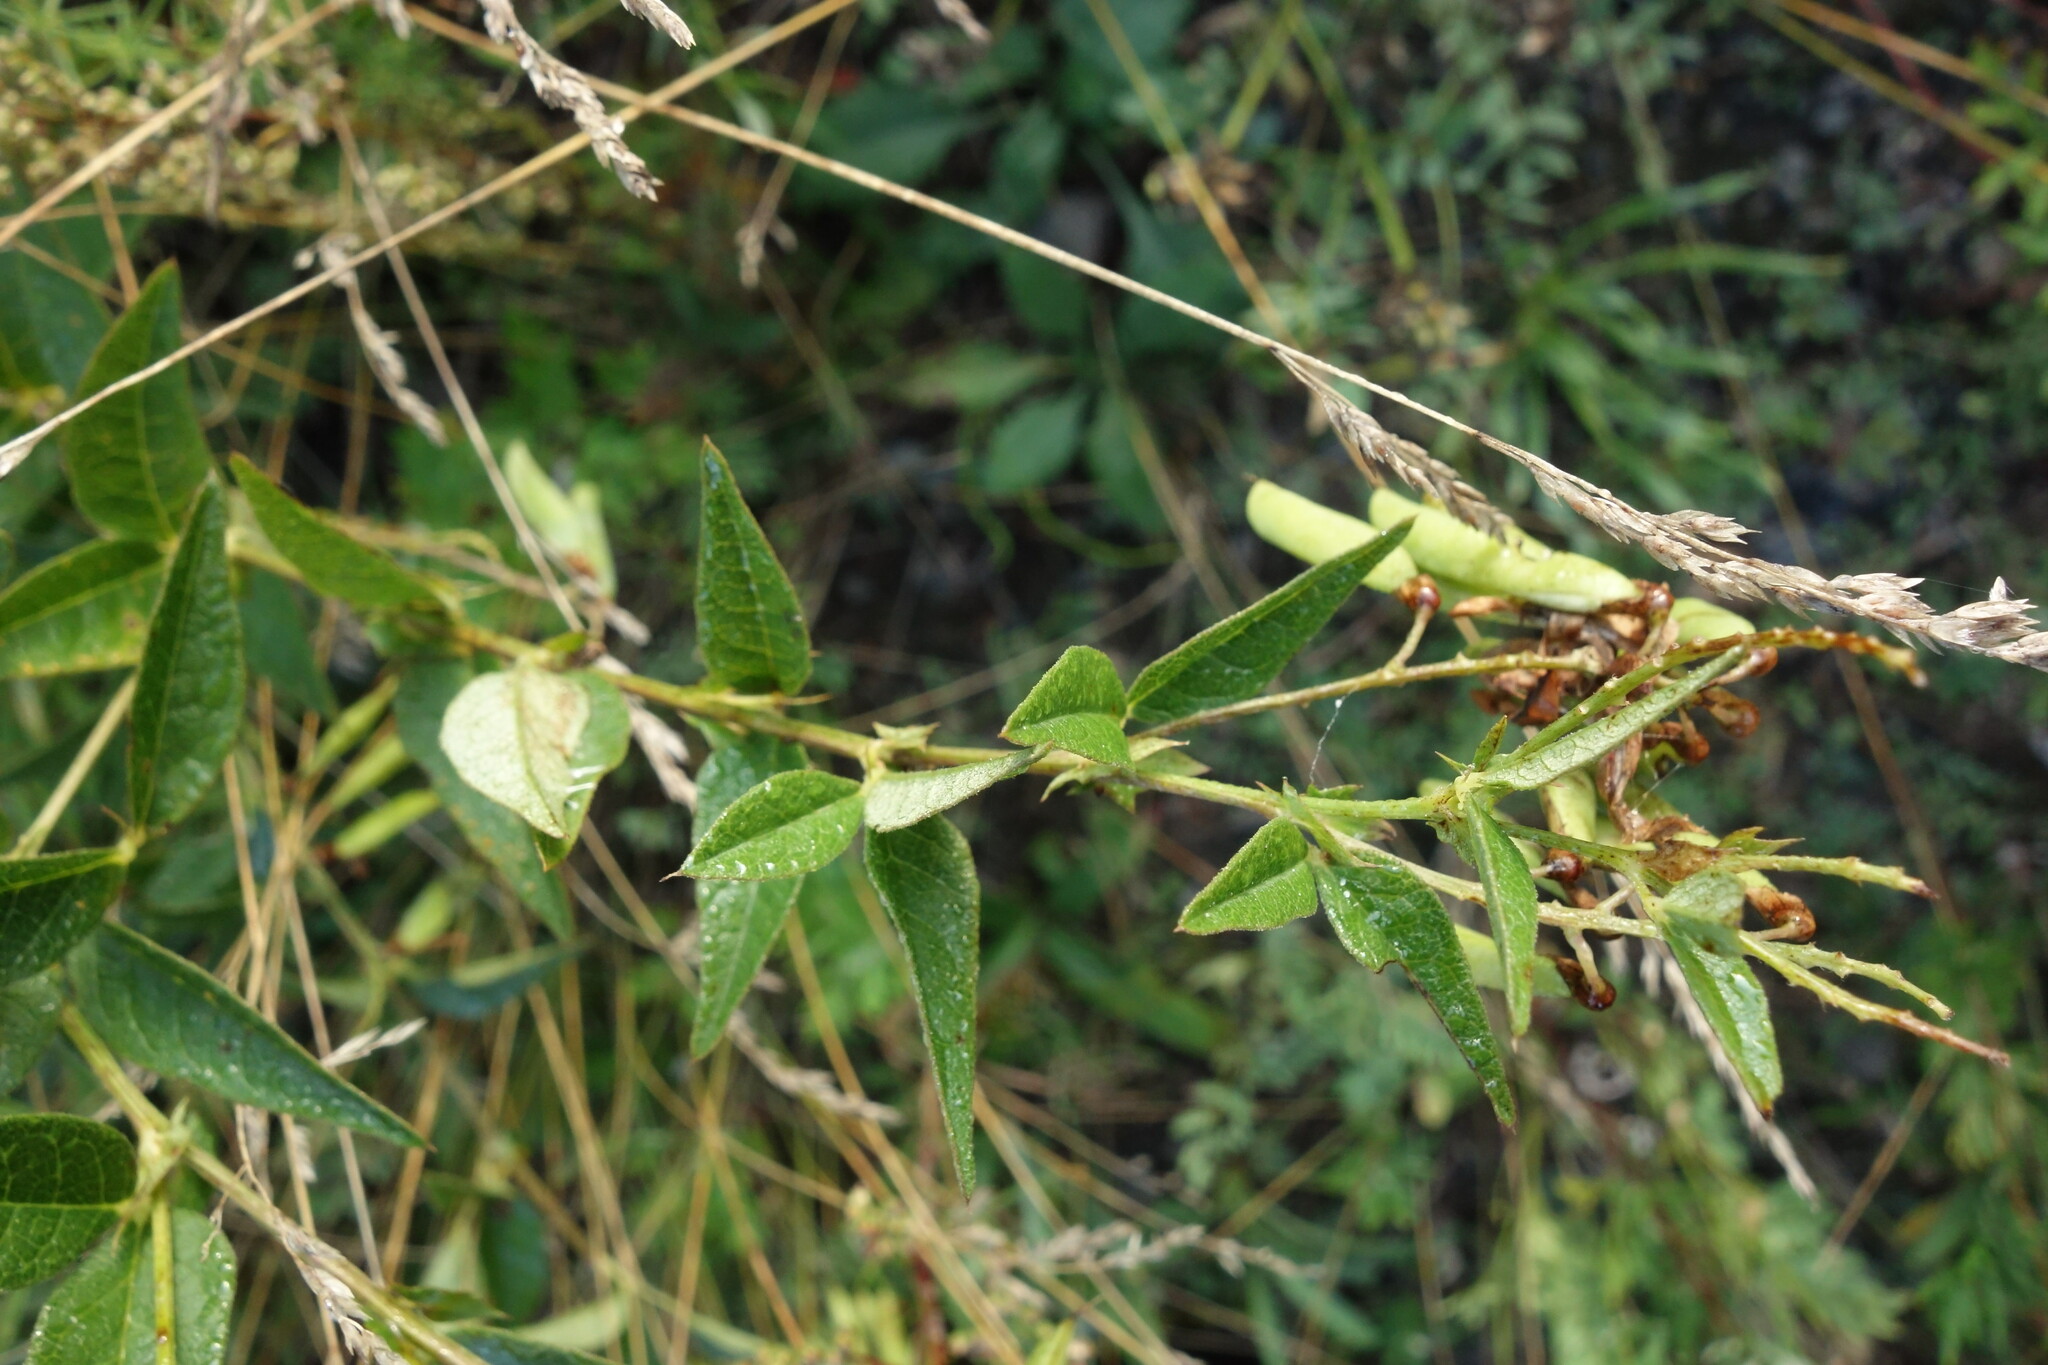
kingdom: Plantae
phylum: Tracheophyta
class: Magnoliopsida
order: Fabales
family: Fabaceae
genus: Vicia
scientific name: Vicia unijuga
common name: Two-leaf vetch
